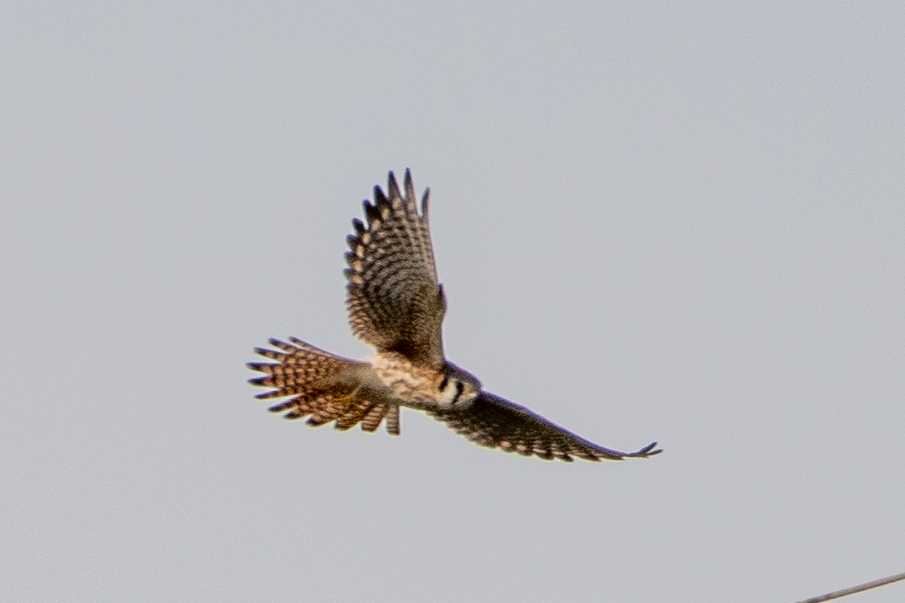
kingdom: Animalia
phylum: Chordata
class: Aves
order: Falconiformes
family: Falconidae
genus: Falco
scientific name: Falco sparverius
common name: American kestrel
